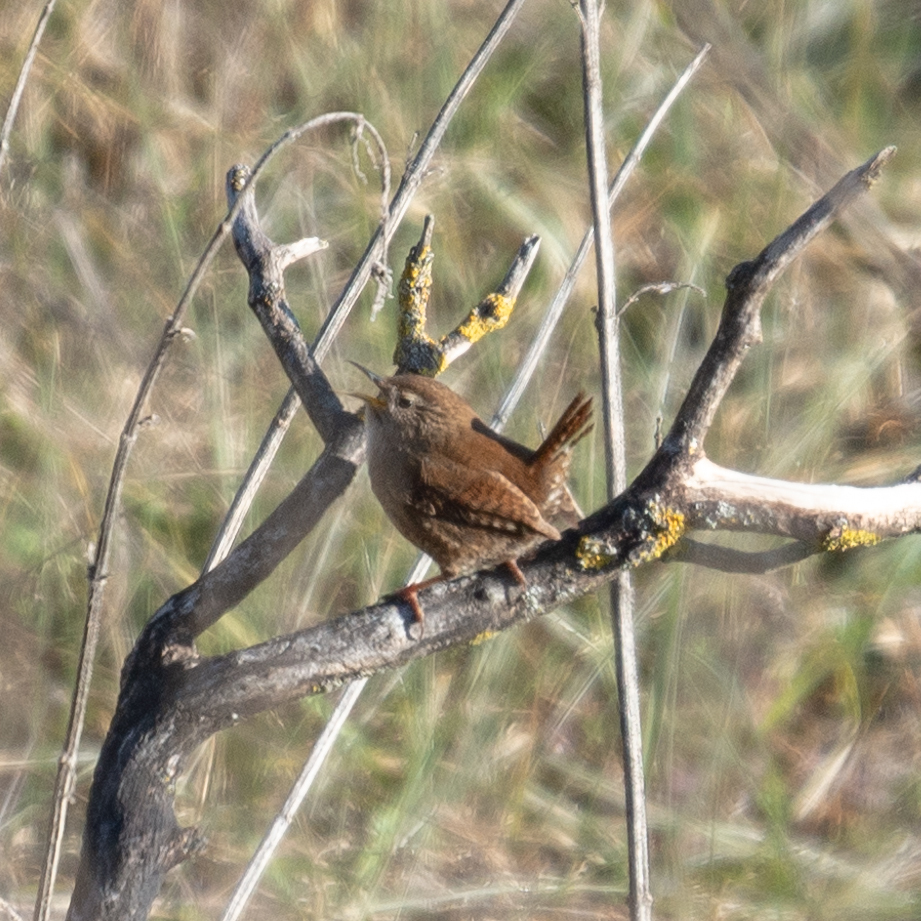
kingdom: Animalia
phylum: Chordata
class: Aves
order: Passeriformes
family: Troglodytidae
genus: Troglodytes
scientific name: Troglodytes troglodytes
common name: Eurasian wren
